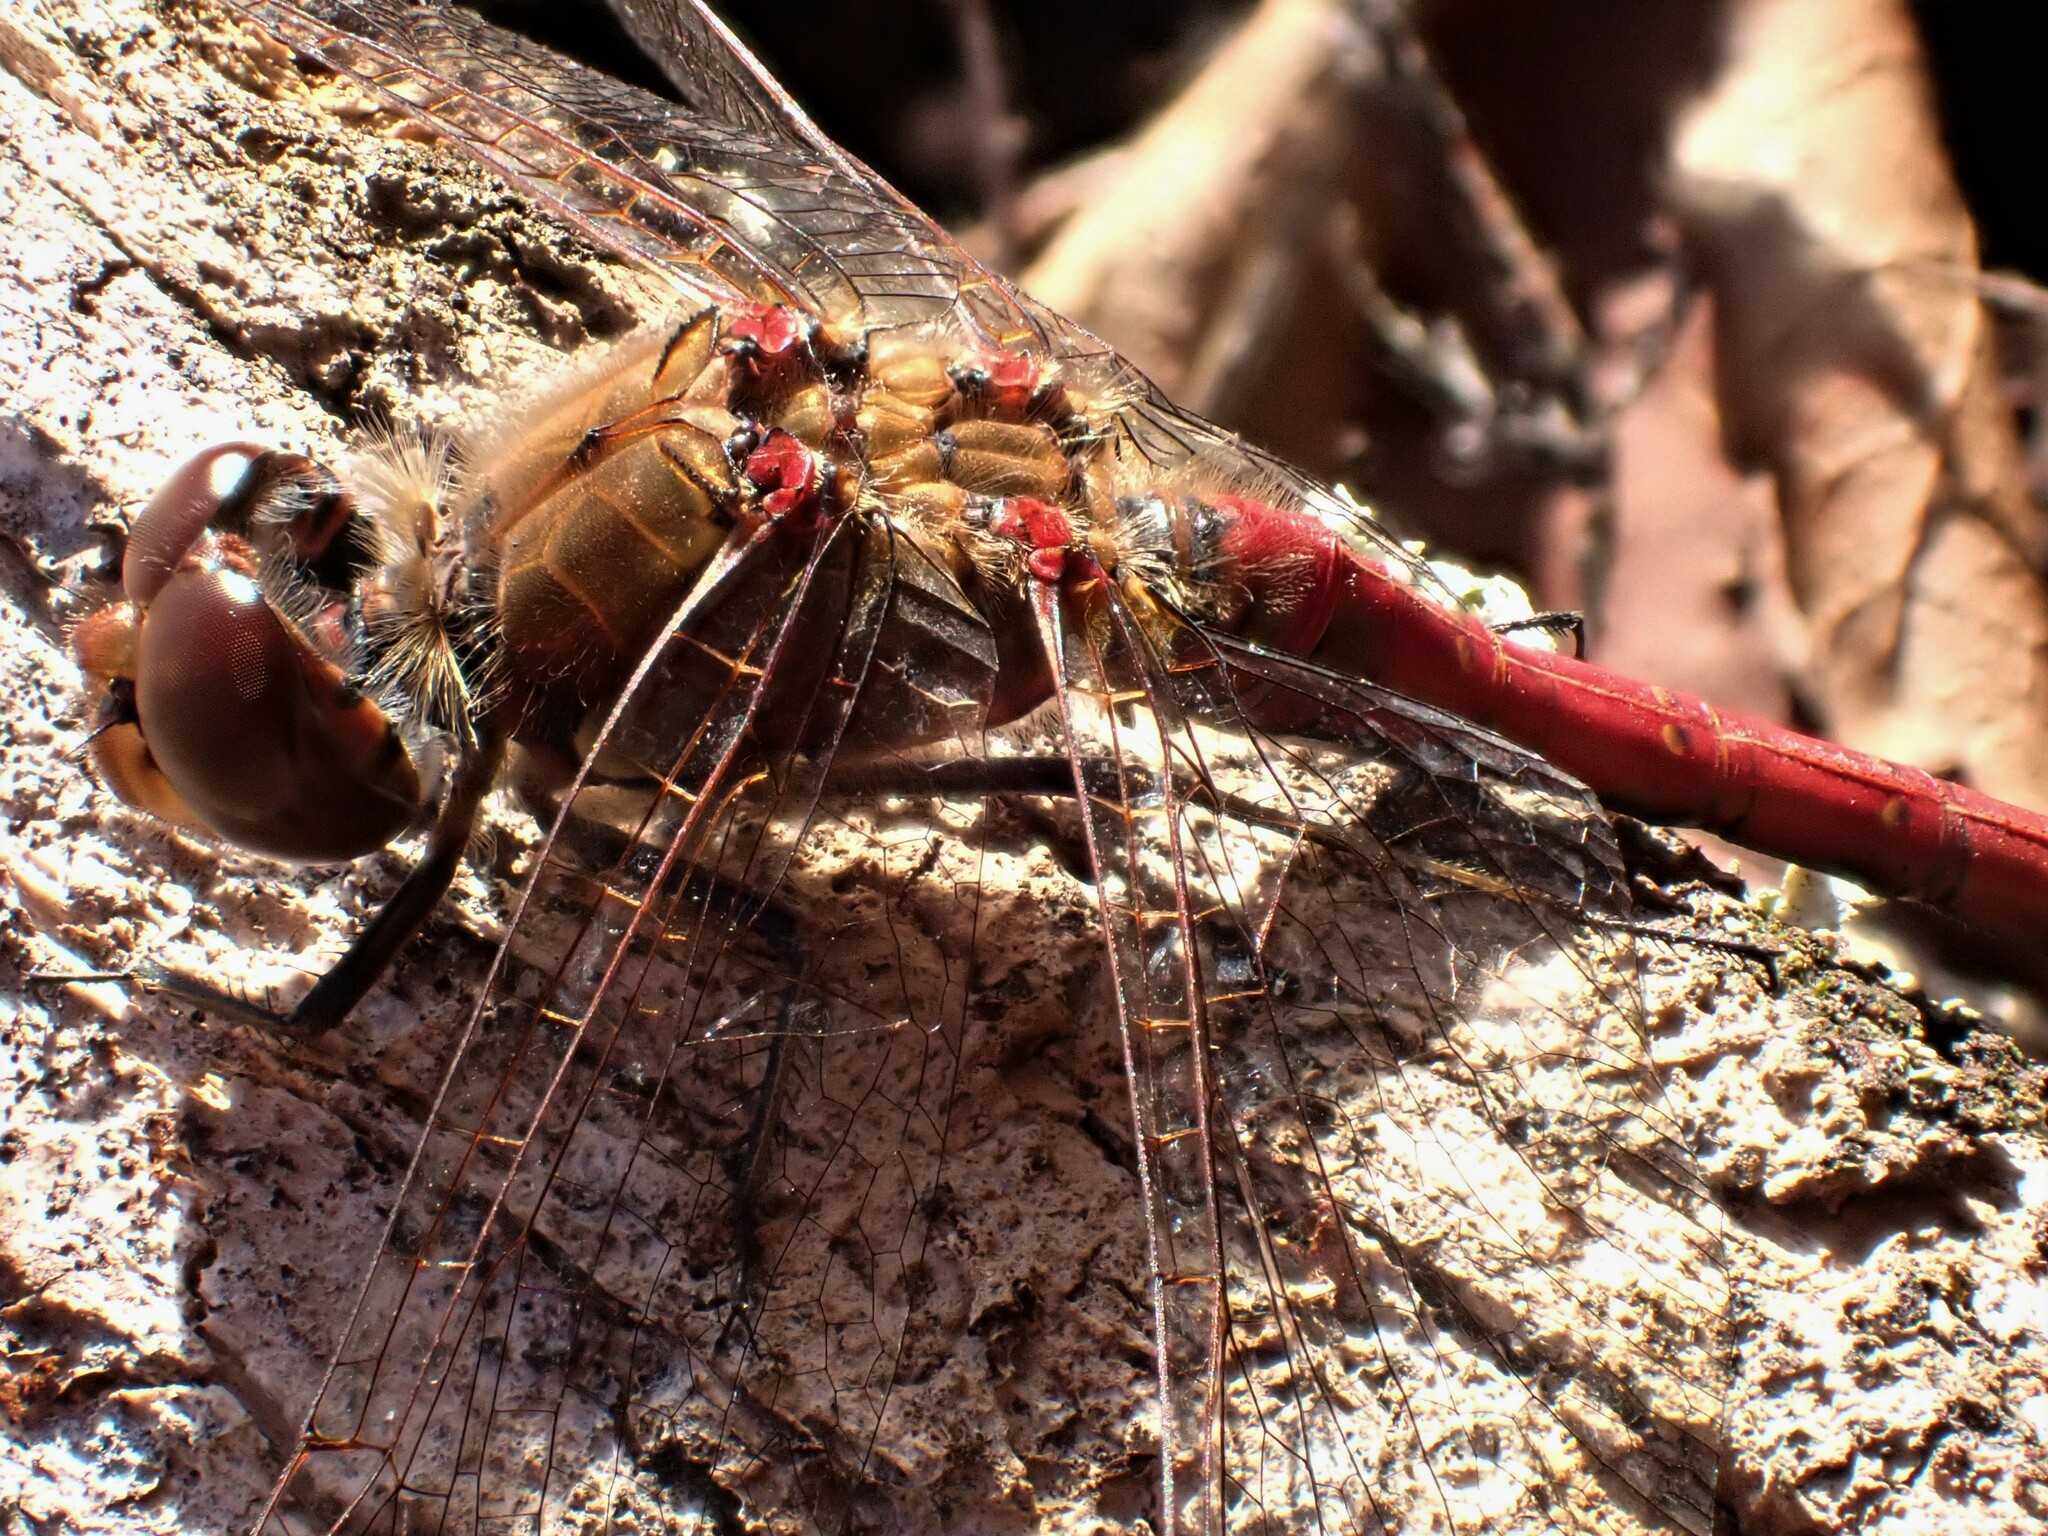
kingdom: Animalia
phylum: Arthropoda
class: Insecta
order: Odonata
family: Libellulidae
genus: Sympetrum
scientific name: Sympetrum striolatum
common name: Common darter
